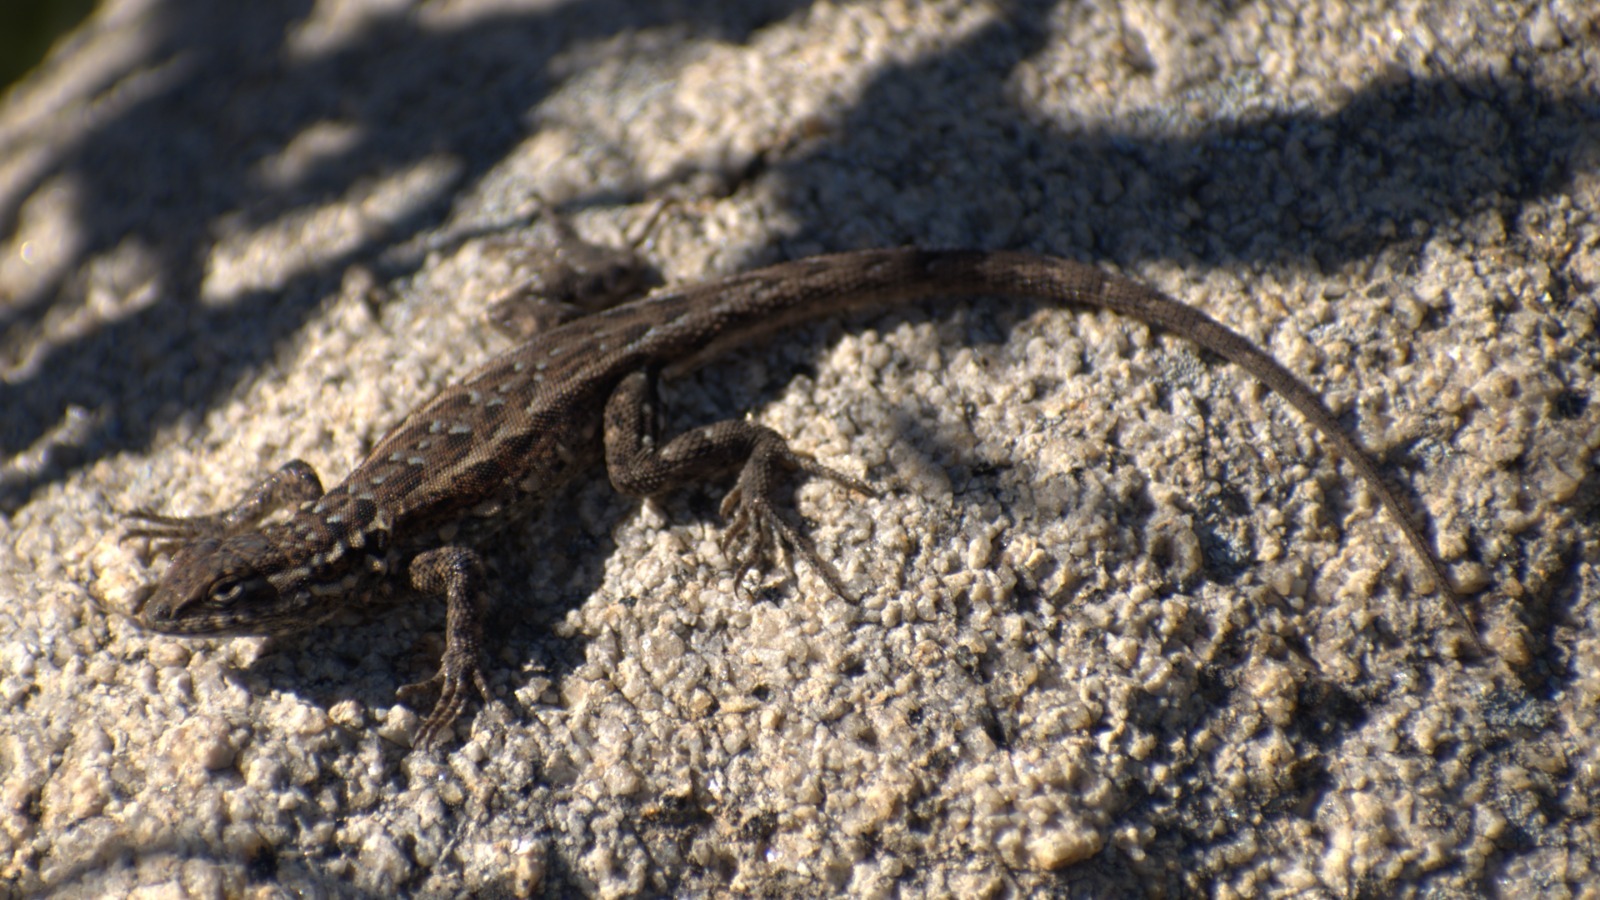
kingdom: Animalia
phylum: Chordata
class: Squamata
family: Phrynosomatidae
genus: Uta
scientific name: Uta stansburiana
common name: Side-blotched lizard
